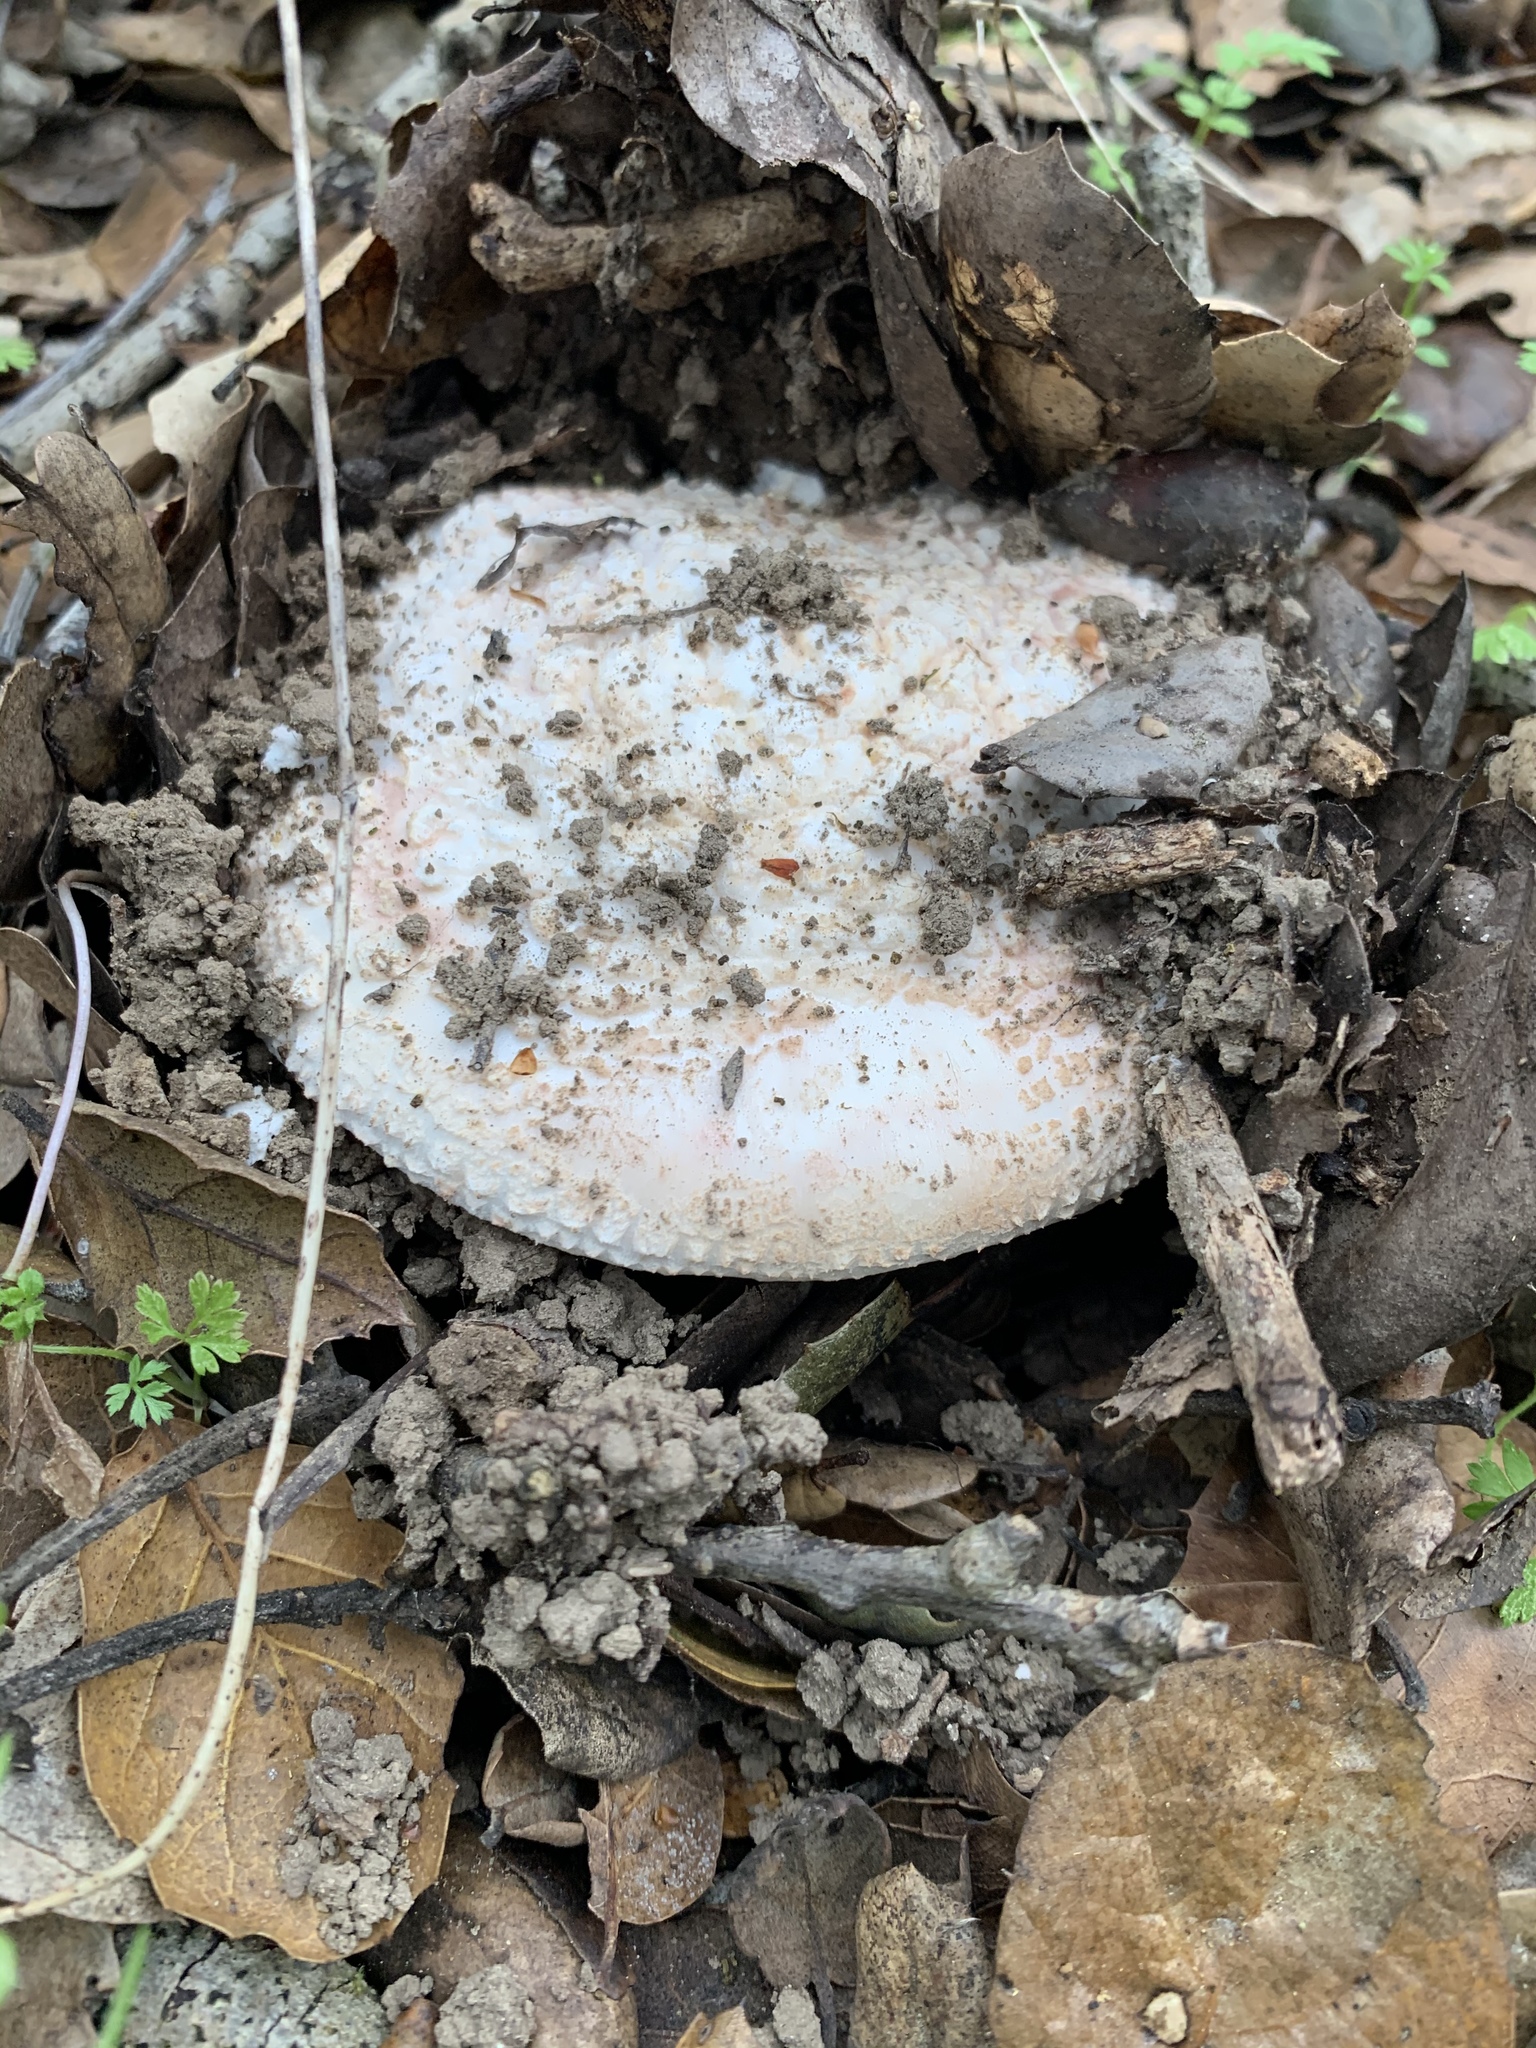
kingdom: Fungi
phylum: Basidiomycota
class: Agaricomycetes
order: Agaricales
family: Amanitaceae
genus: Amanita
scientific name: Amanita novinupta
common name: Blushing bride
